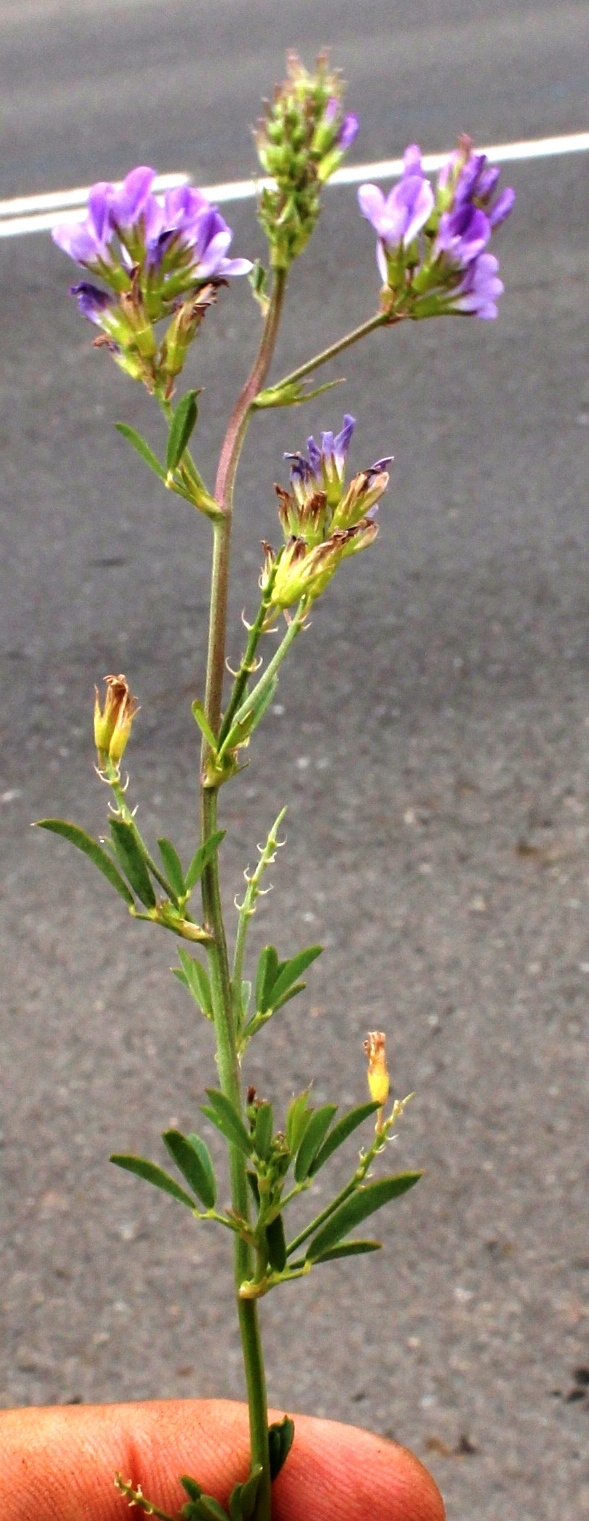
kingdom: Plantae
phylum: Tracheophyta
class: Magnoliopsida
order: Fabales
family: Fabaceae
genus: Medicago
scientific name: Medicago sativa
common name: Alfalfa
